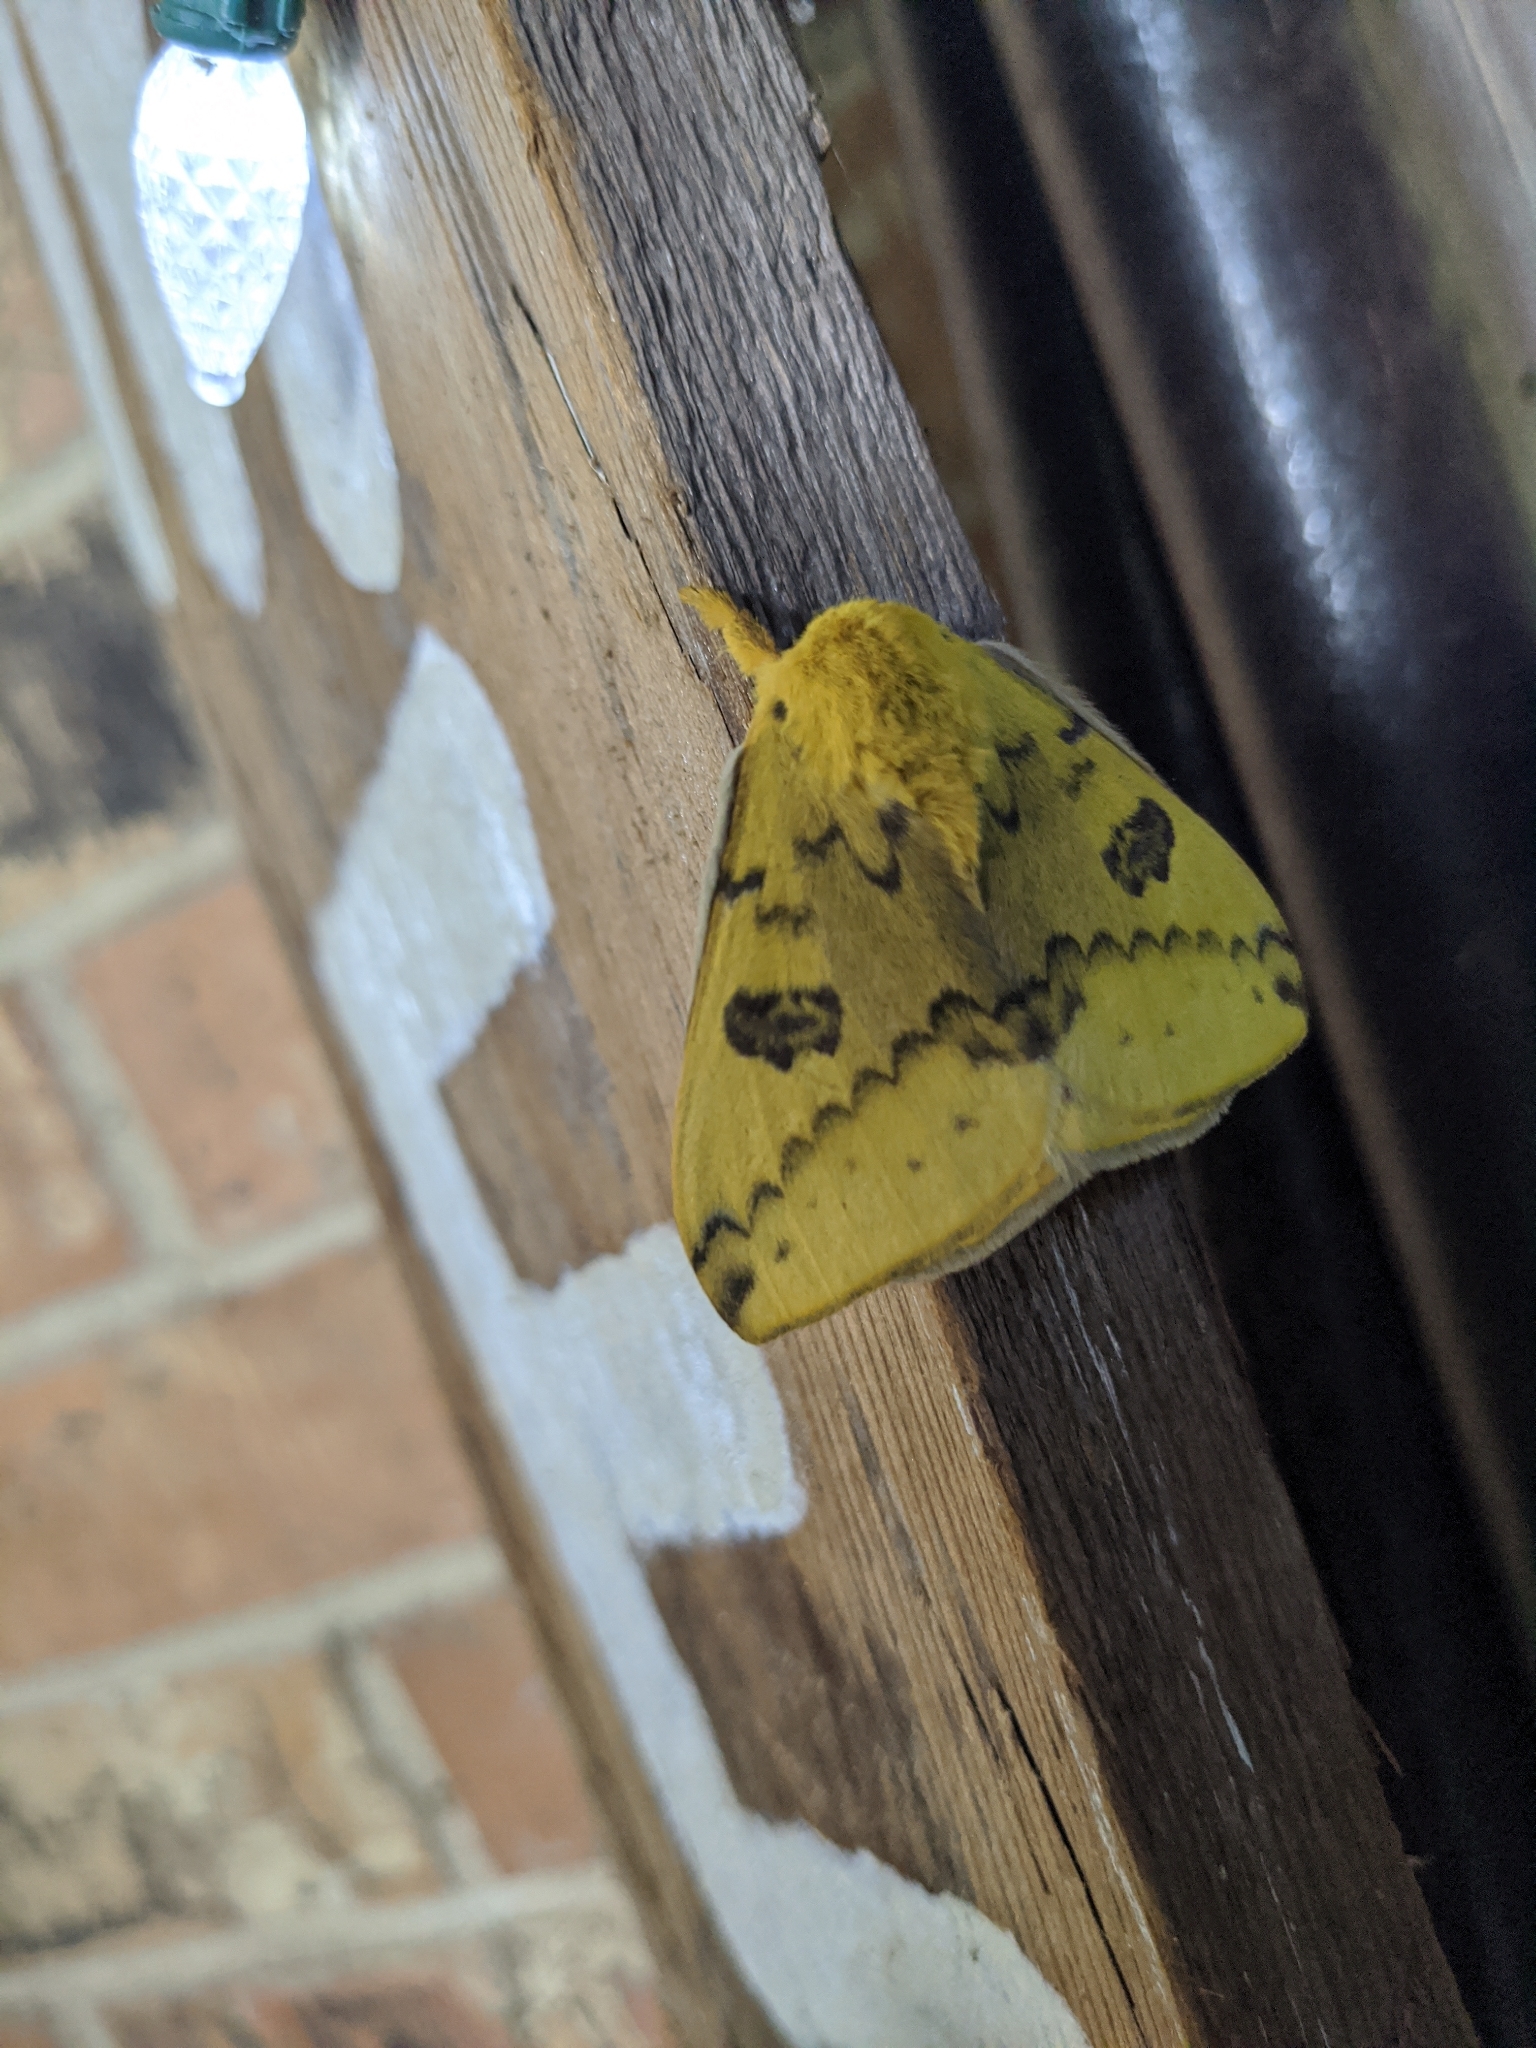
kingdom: Animalia
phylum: Arthropoda
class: Insecta
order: Lepidoptera
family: Saturniidae
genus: Automeris
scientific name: Automeris io
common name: Io moth
